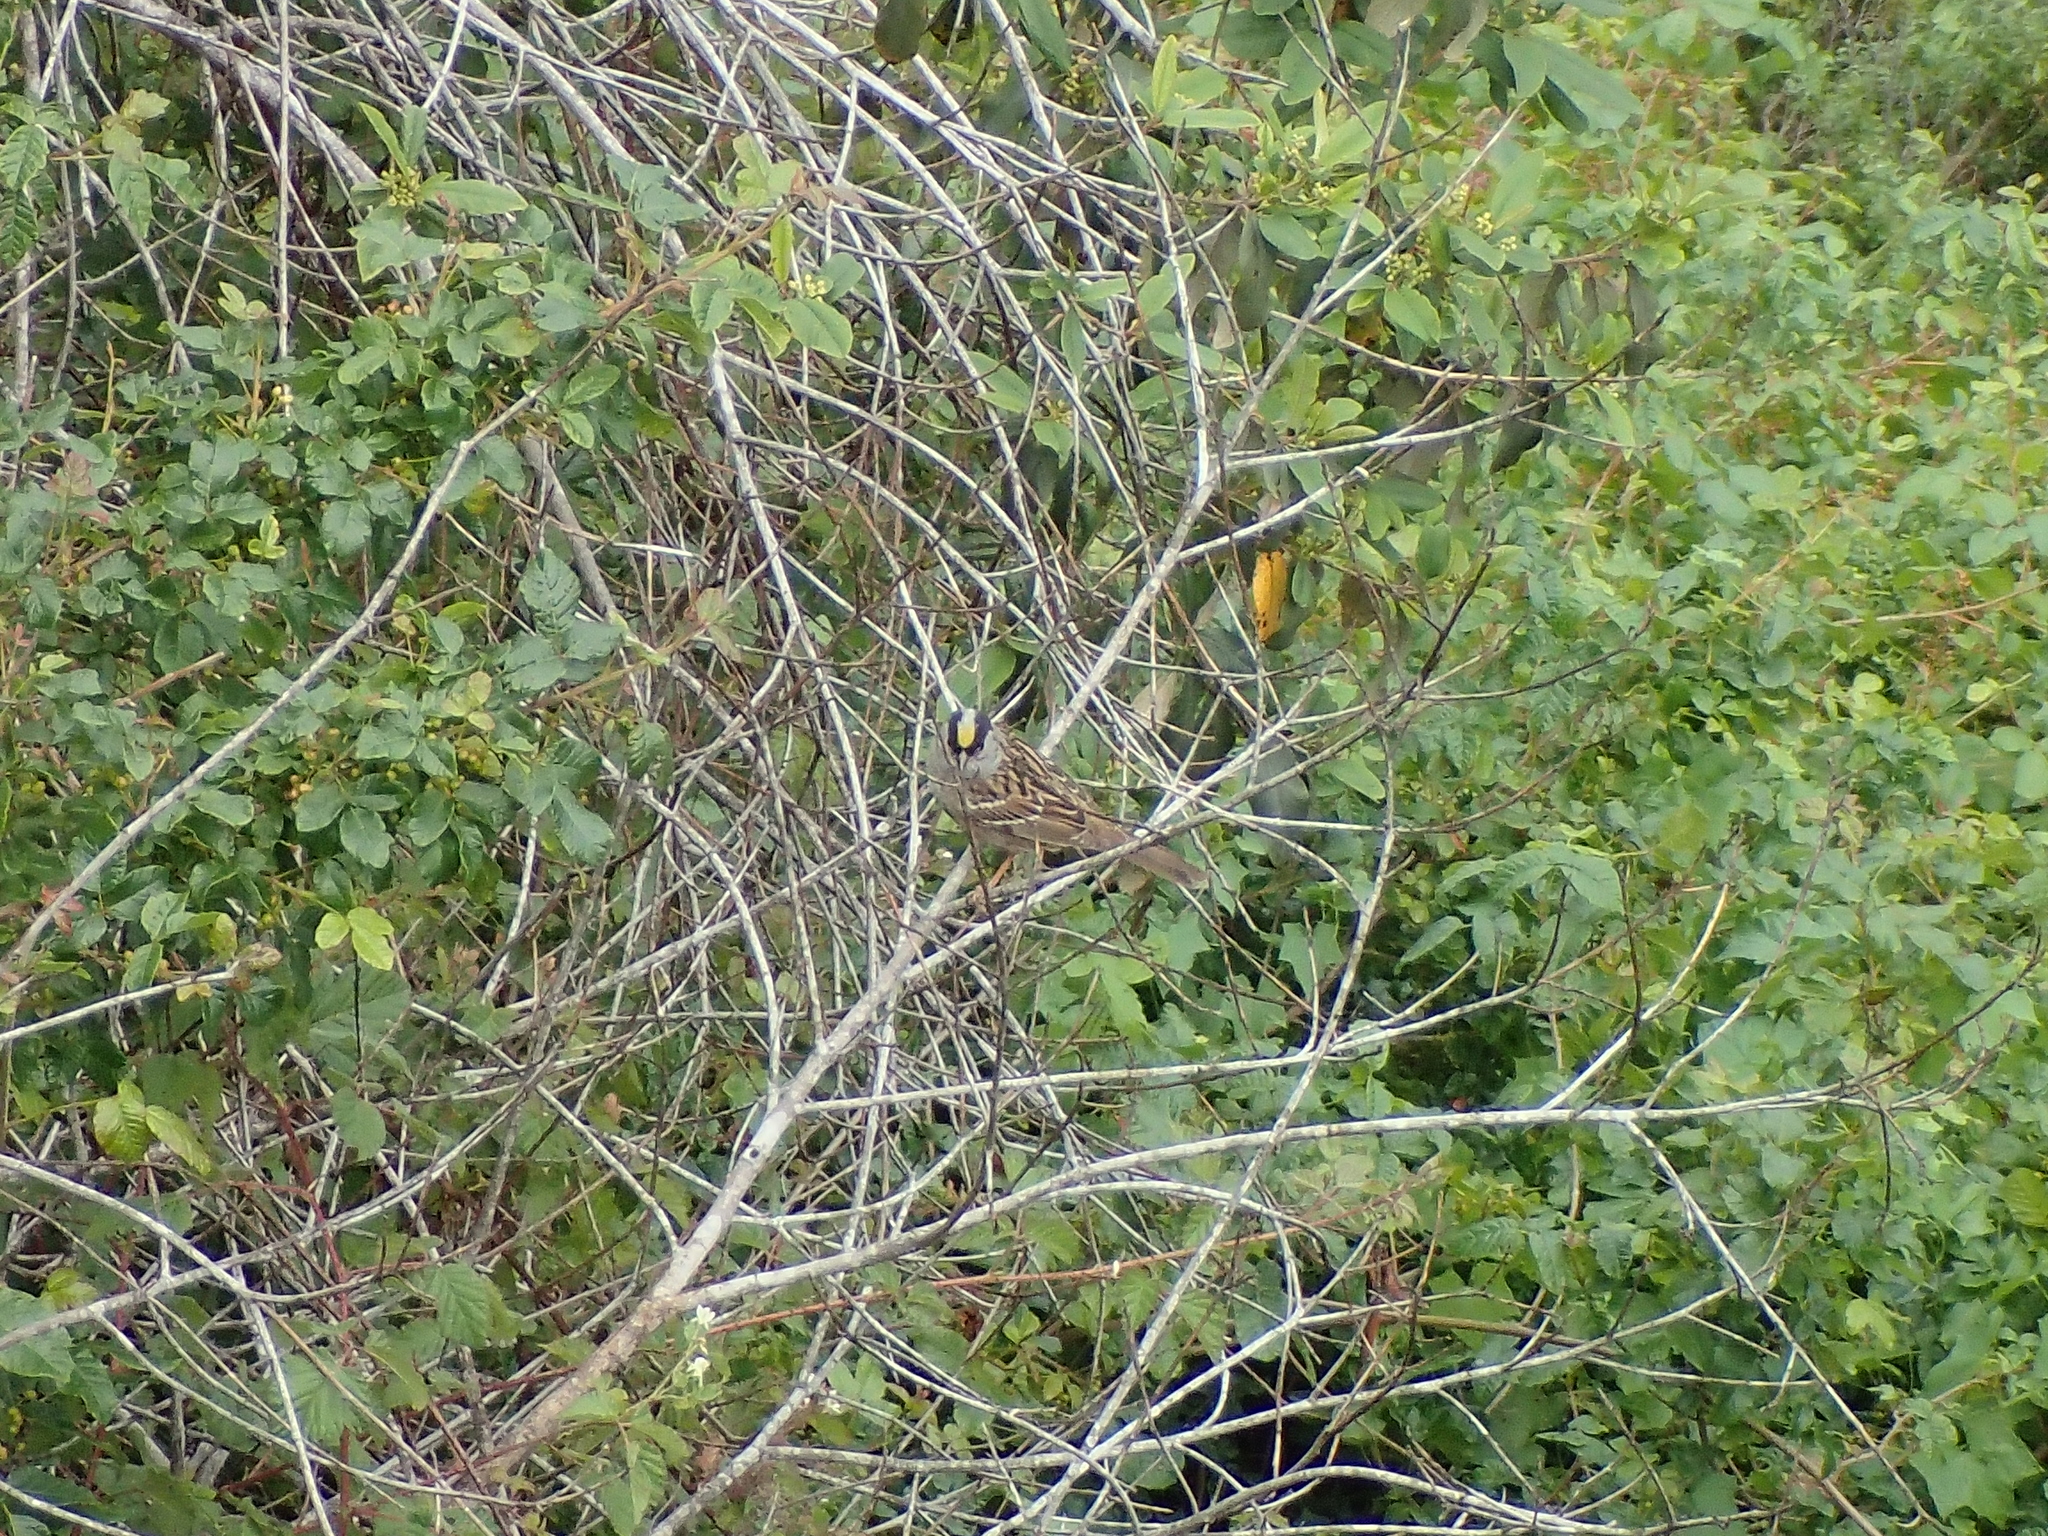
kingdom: Animalia
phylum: Chordata
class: Aves
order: Passeriformes
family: Passerellidae
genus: Zonotrichia
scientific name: Zonotrichia atricapilla
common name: Golden-crowned sparrow
